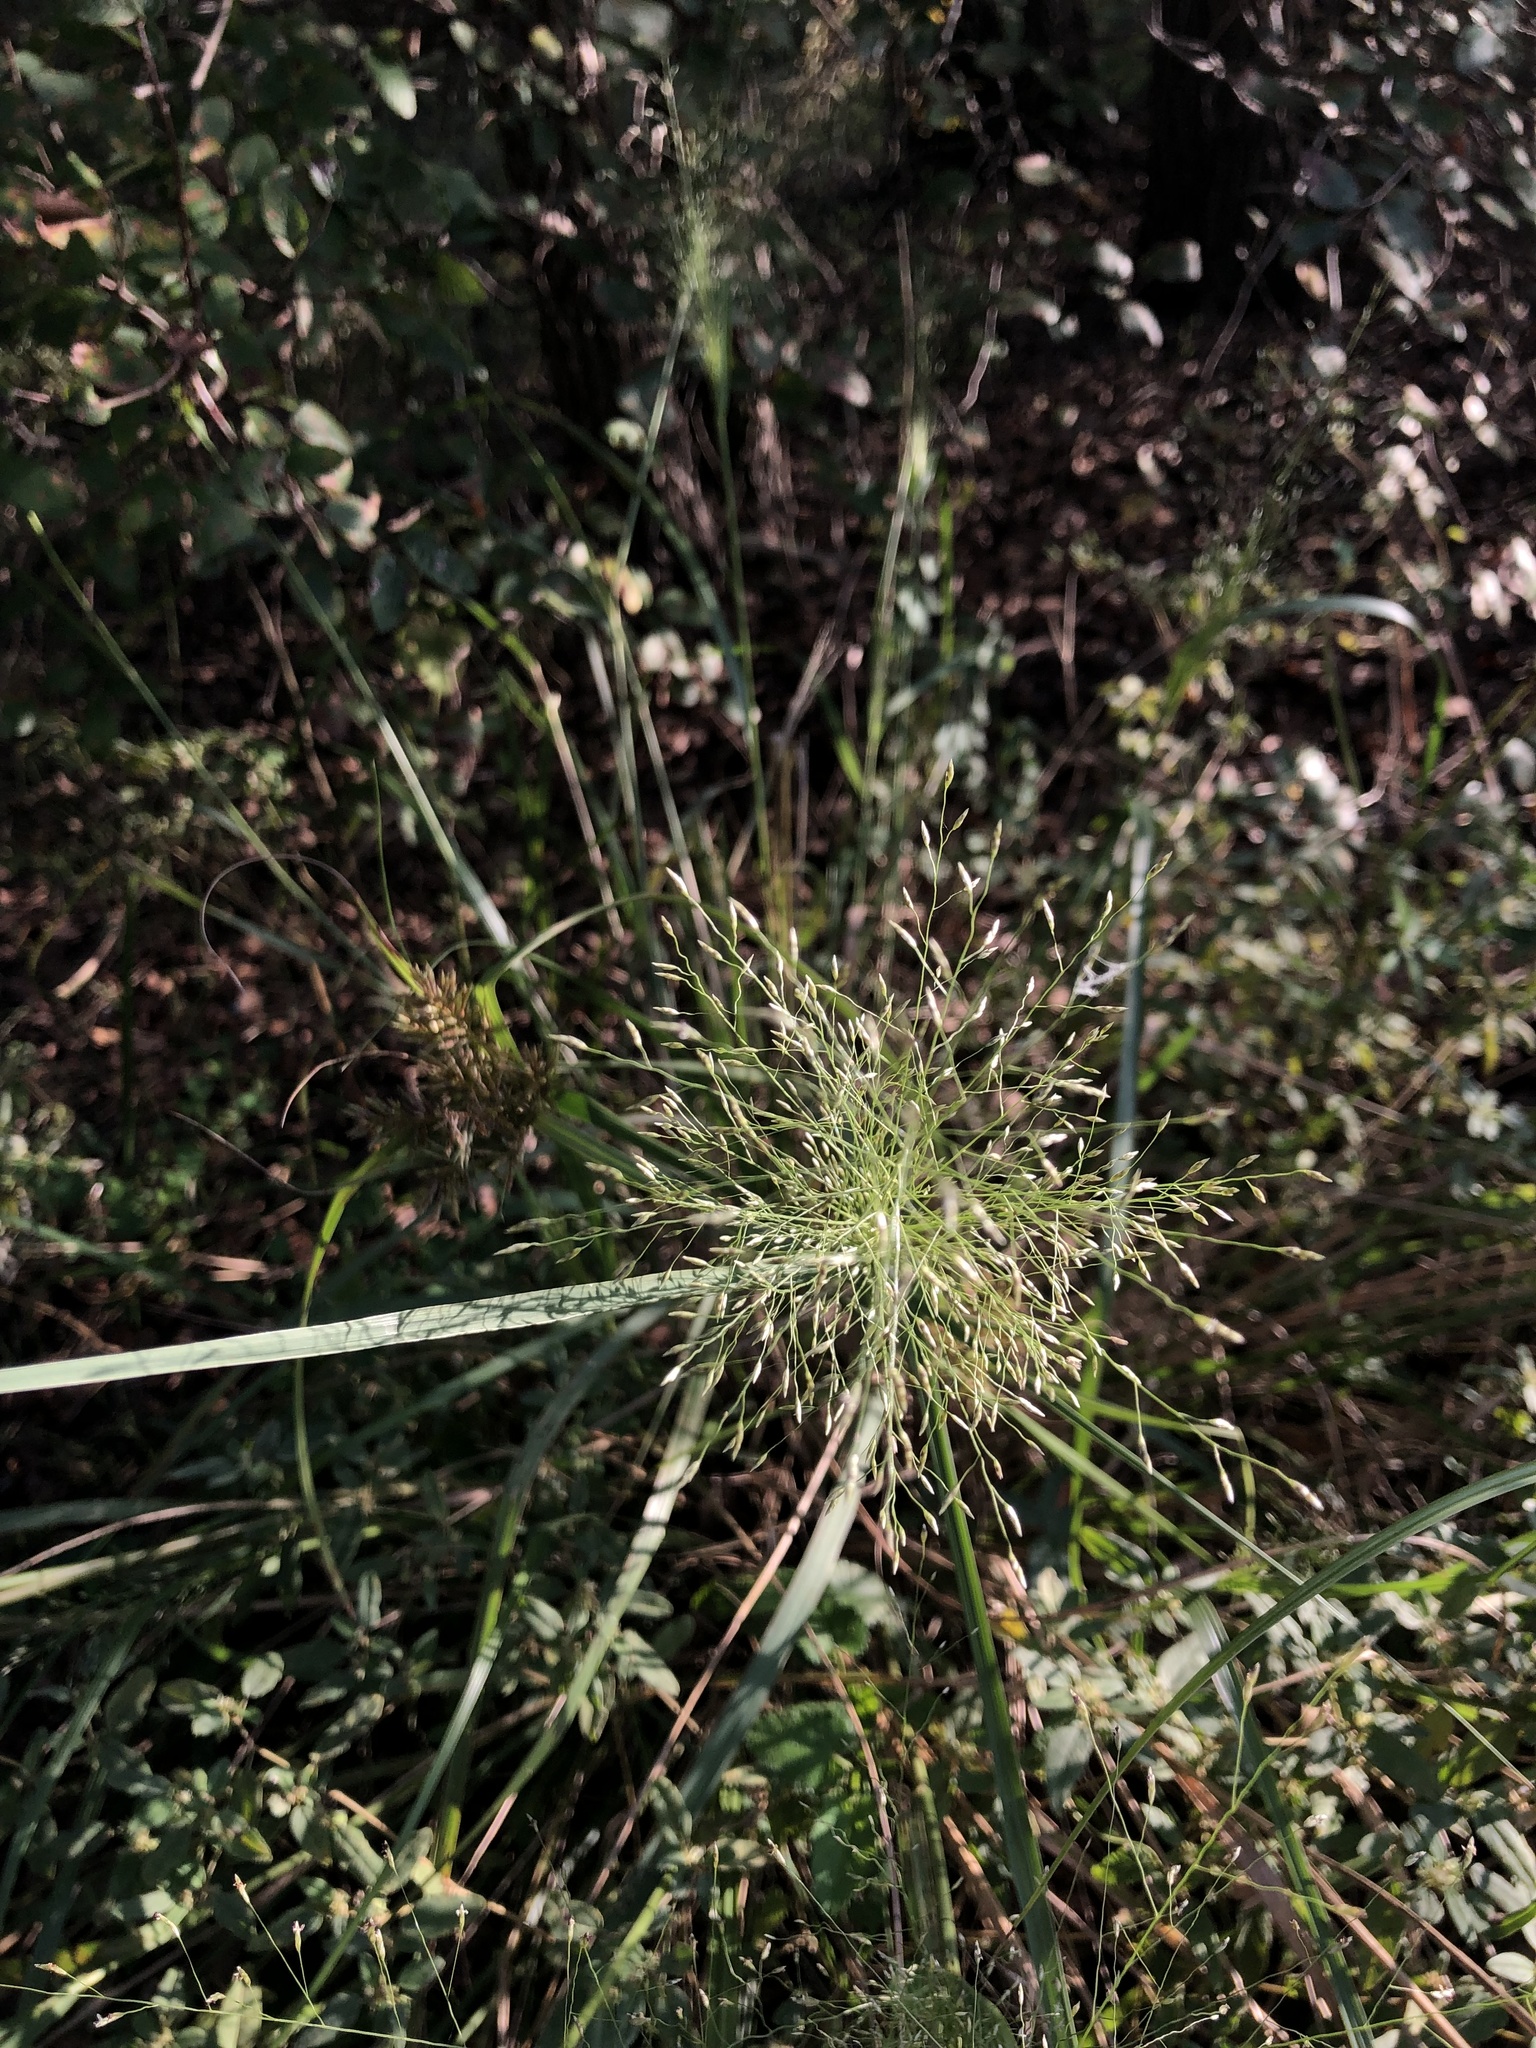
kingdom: Plantae
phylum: Tracheophyta
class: Liliopsida
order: Poales
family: Poaceae
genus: Eragrostis
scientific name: Eragrostis intermedia
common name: Plains love grass
